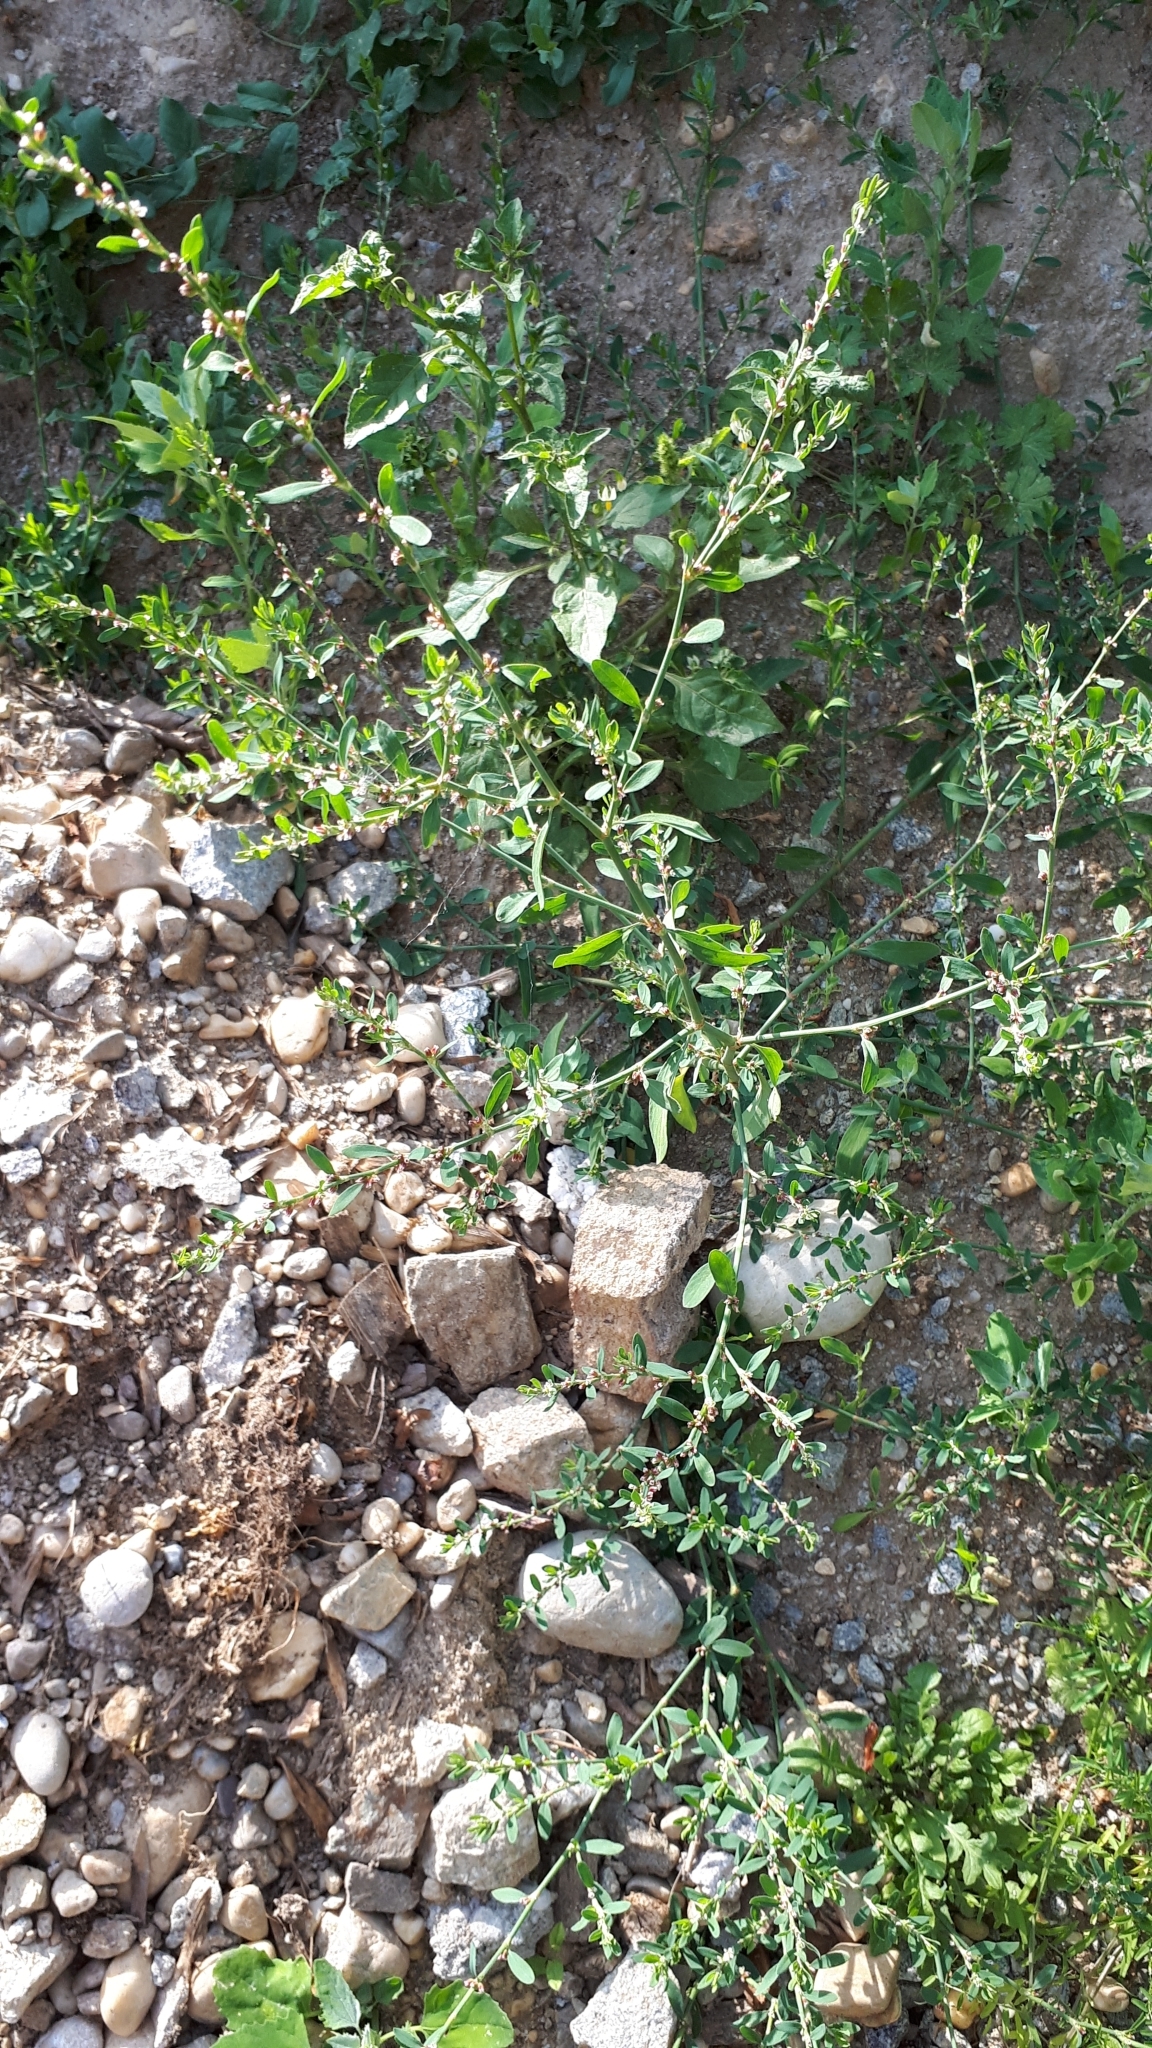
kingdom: Plantae
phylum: Tracheophyta
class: Magnoliopsida
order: Caryophyllales
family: Polygonaceae
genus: Polygonum
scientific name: Polygonum aviculare
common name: Prostrate knotweed
